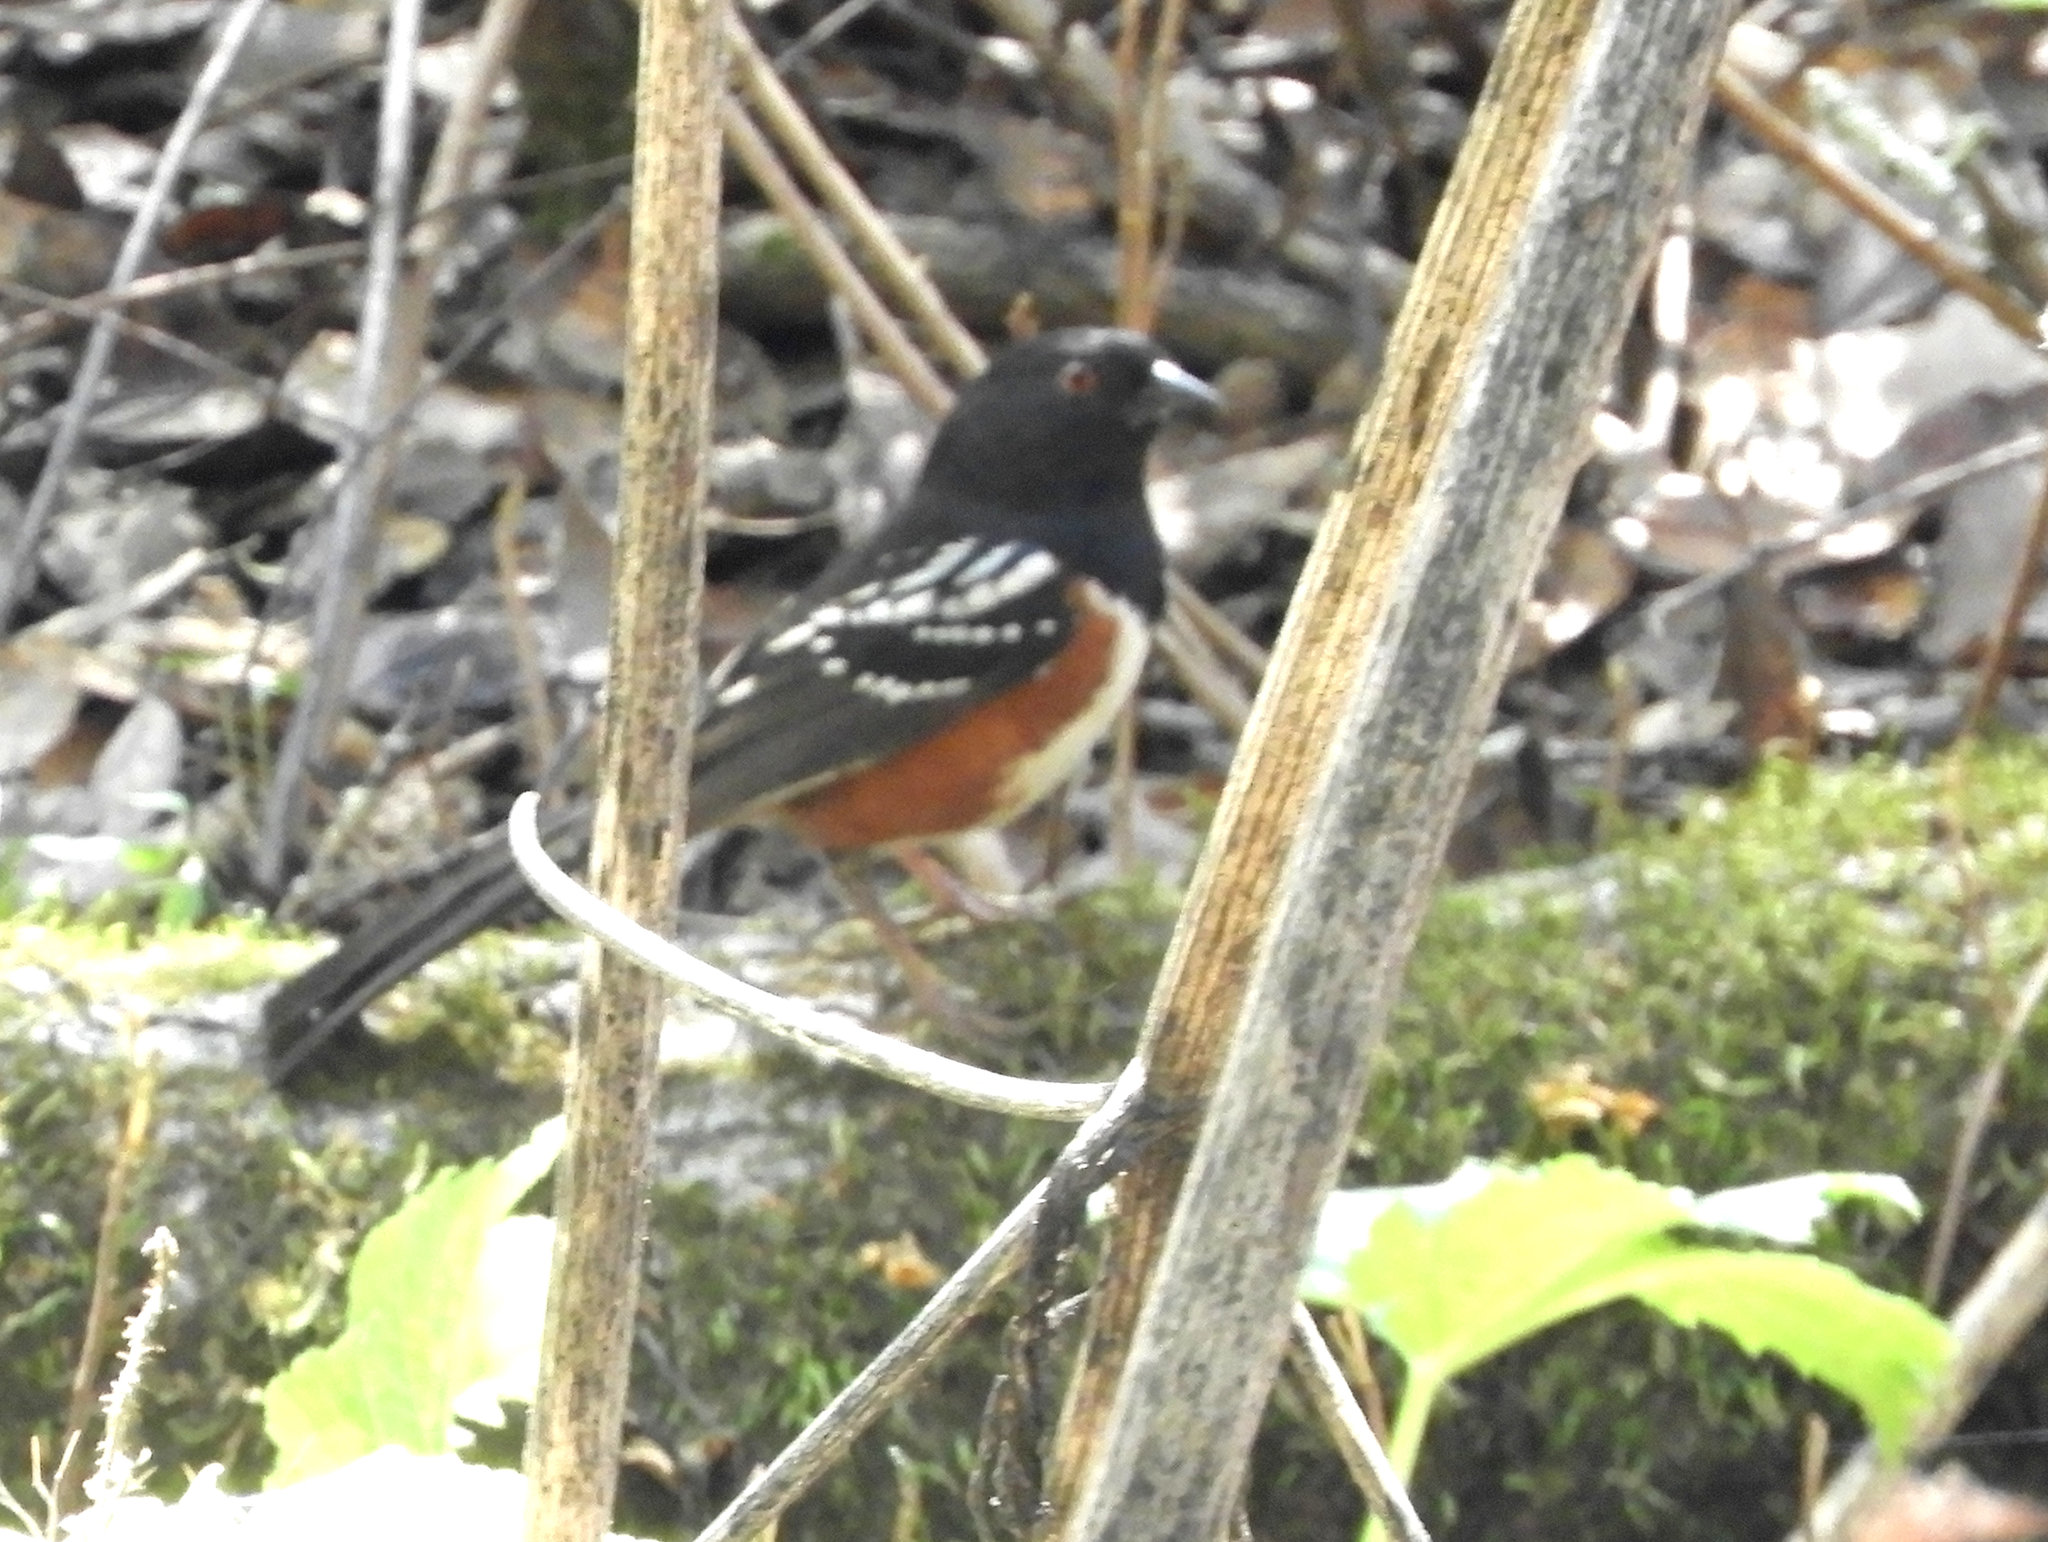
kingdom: Animalia
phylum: Chordata
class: Aves
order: Passeriformes
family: Passerellidae
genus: Pipilo
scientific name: Pipilo maculatus
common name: Spotted towhee
